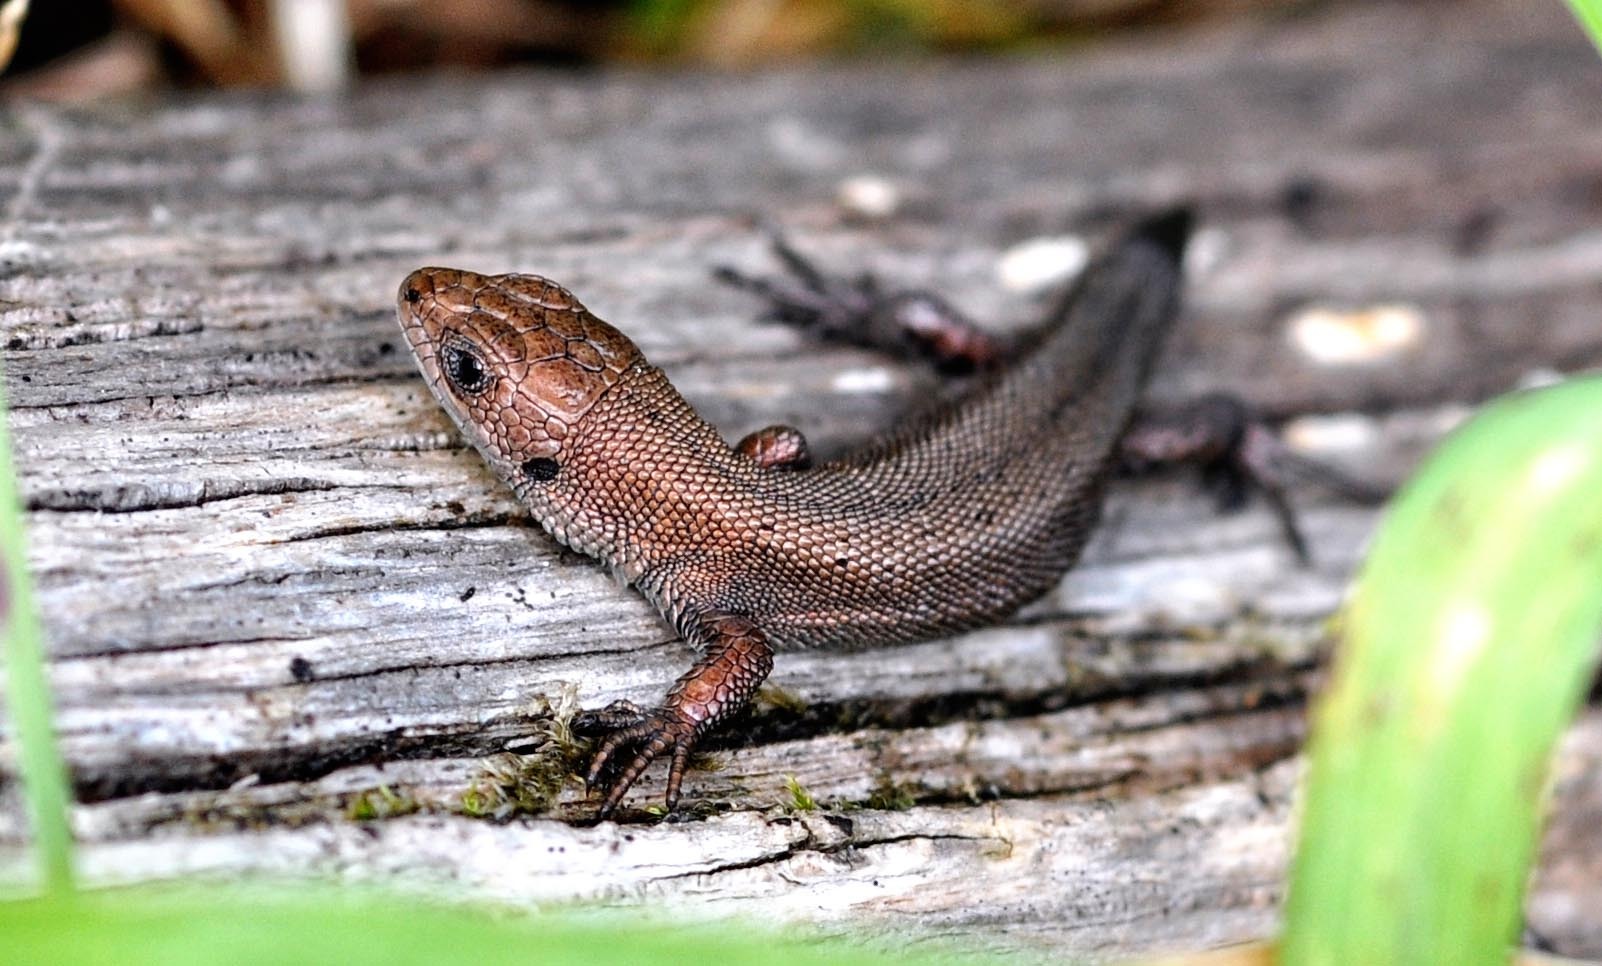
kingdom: Animalia
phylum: Chordata
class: Squamata
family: Lacertidae
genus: Zootoca
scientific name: Zootoca vivipara
